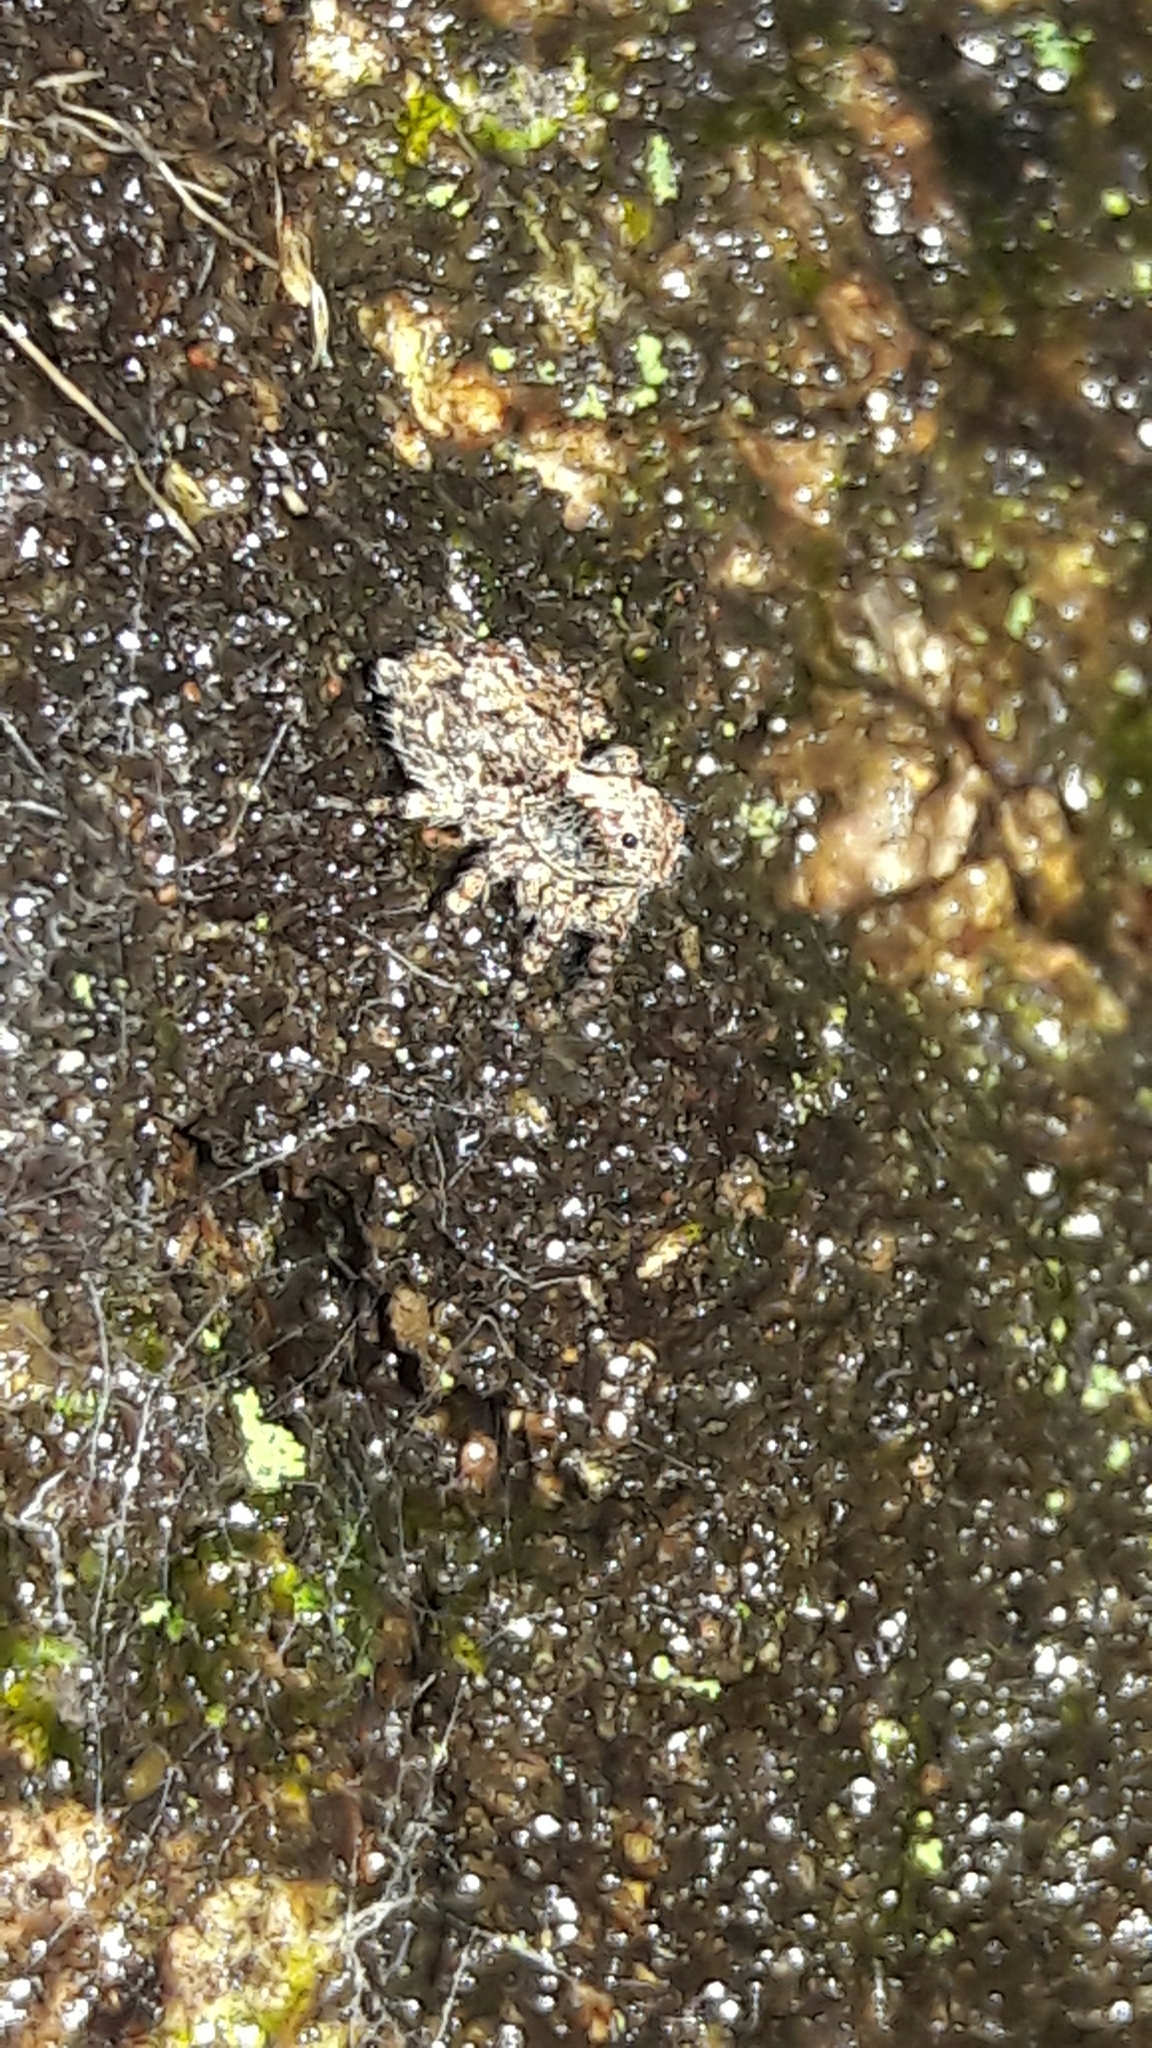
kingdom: Animalia
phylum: Arthropoda
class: Arachnida
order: Araneae
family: Salticidae
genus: Marma
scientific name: Marma nigritarsis
